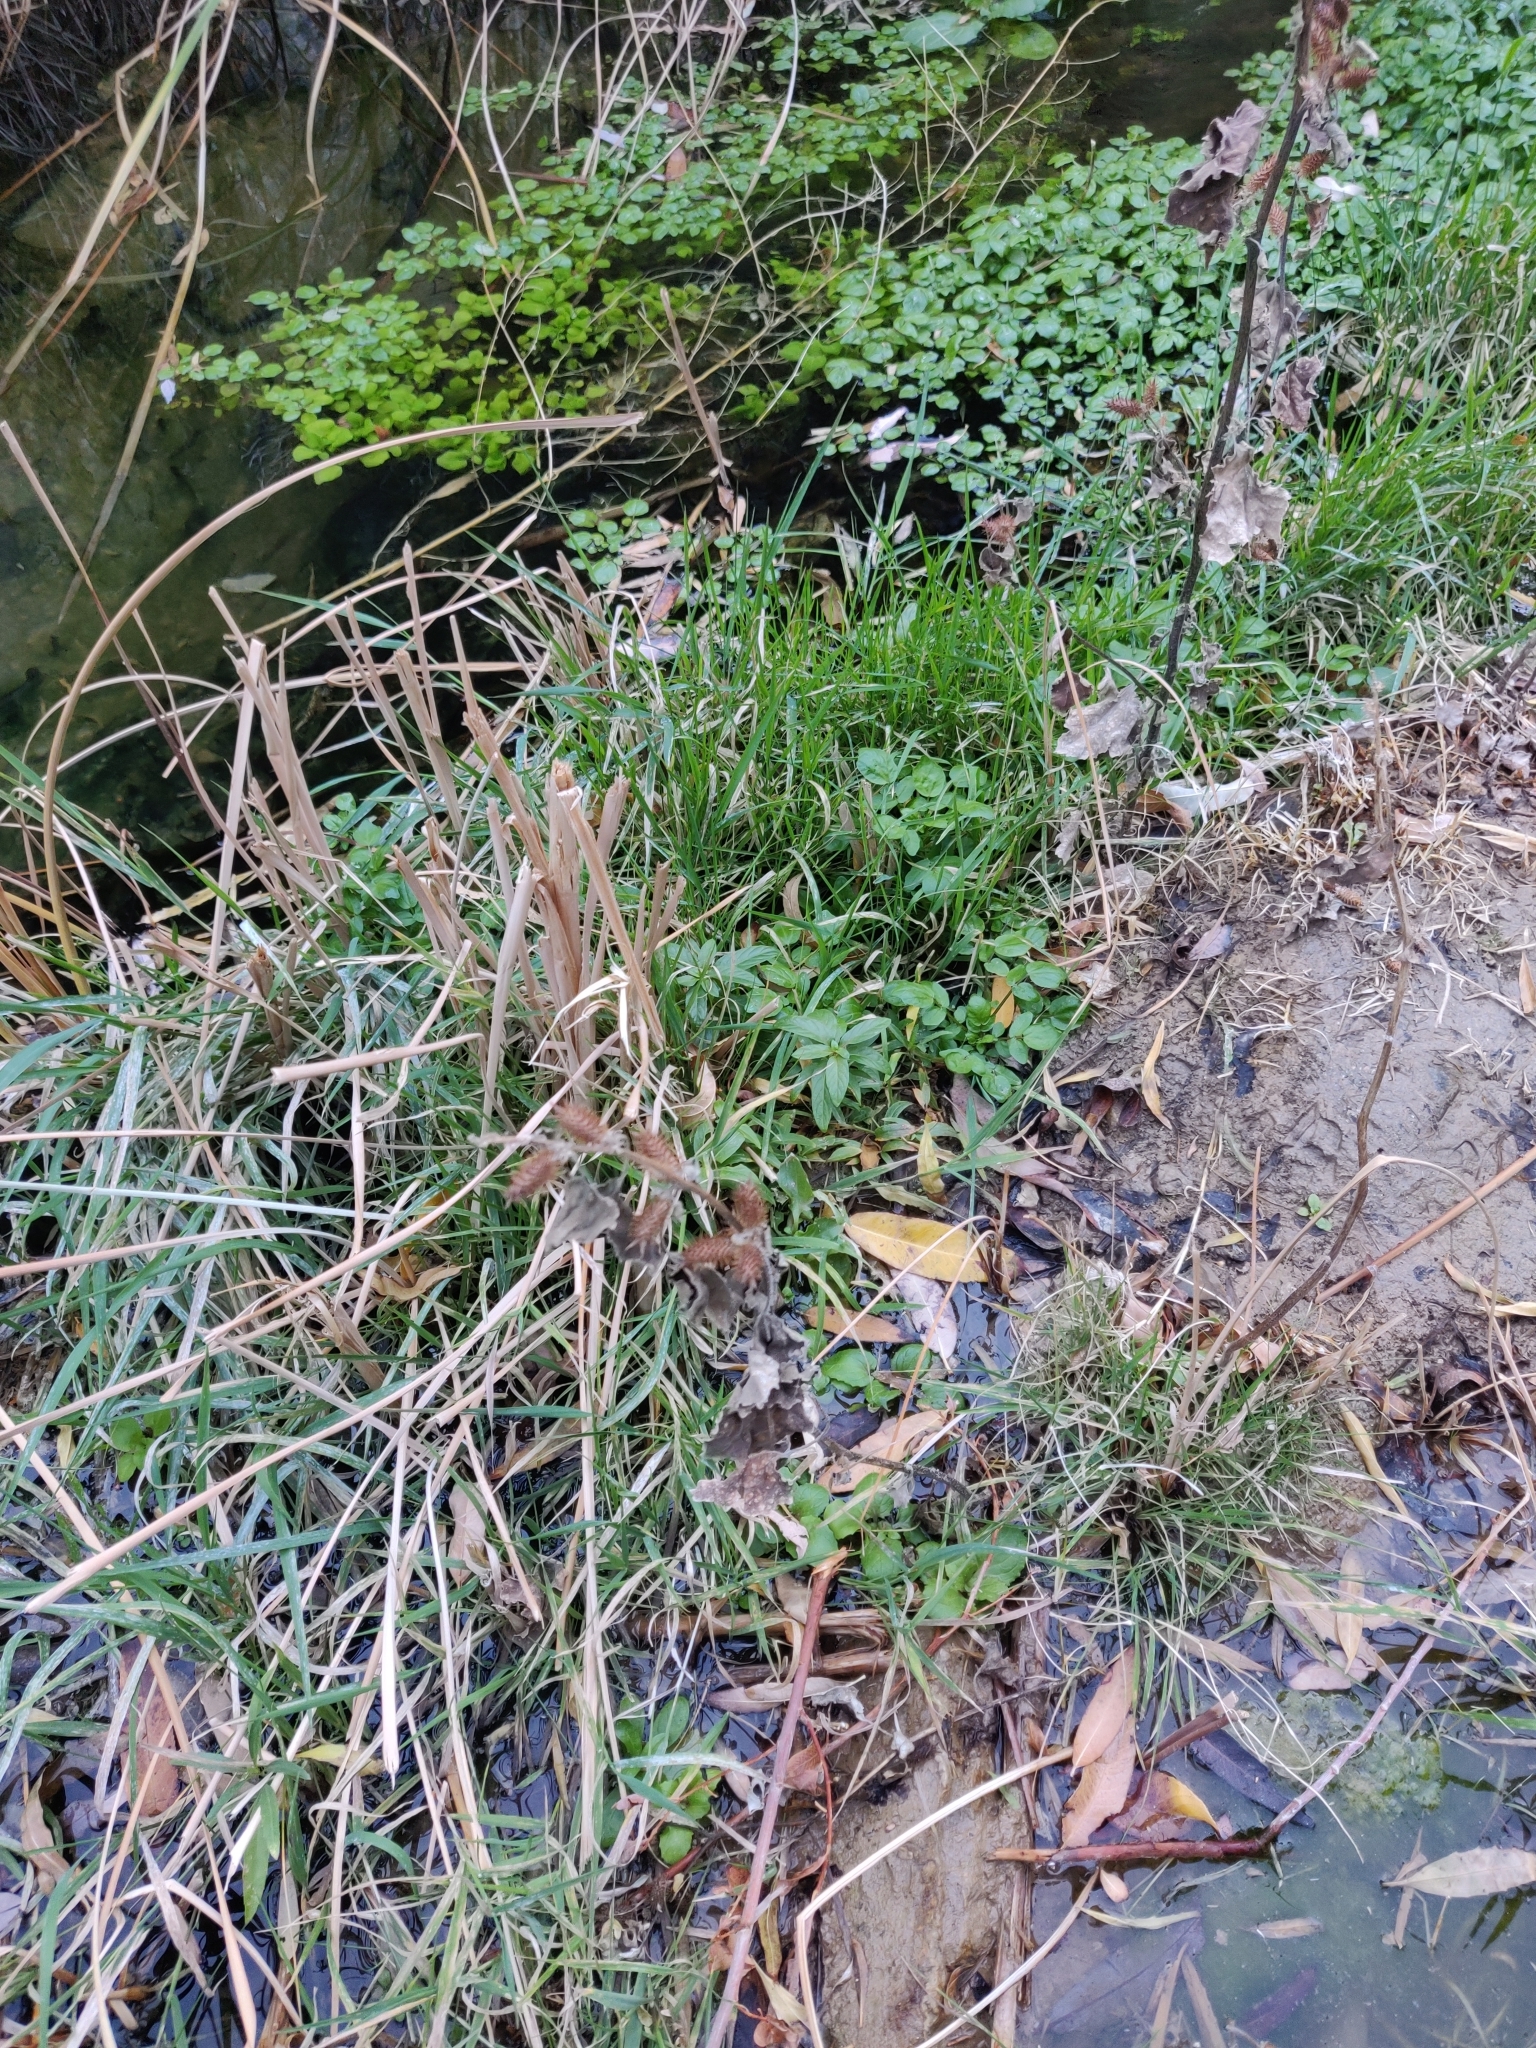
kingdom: Plantae
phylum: Tracheophyta
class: Magnoliopsida
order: Asterales
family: Asteraceae
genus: Xanthium
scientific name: Xanthium strumarium
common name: Rough cocklebur
